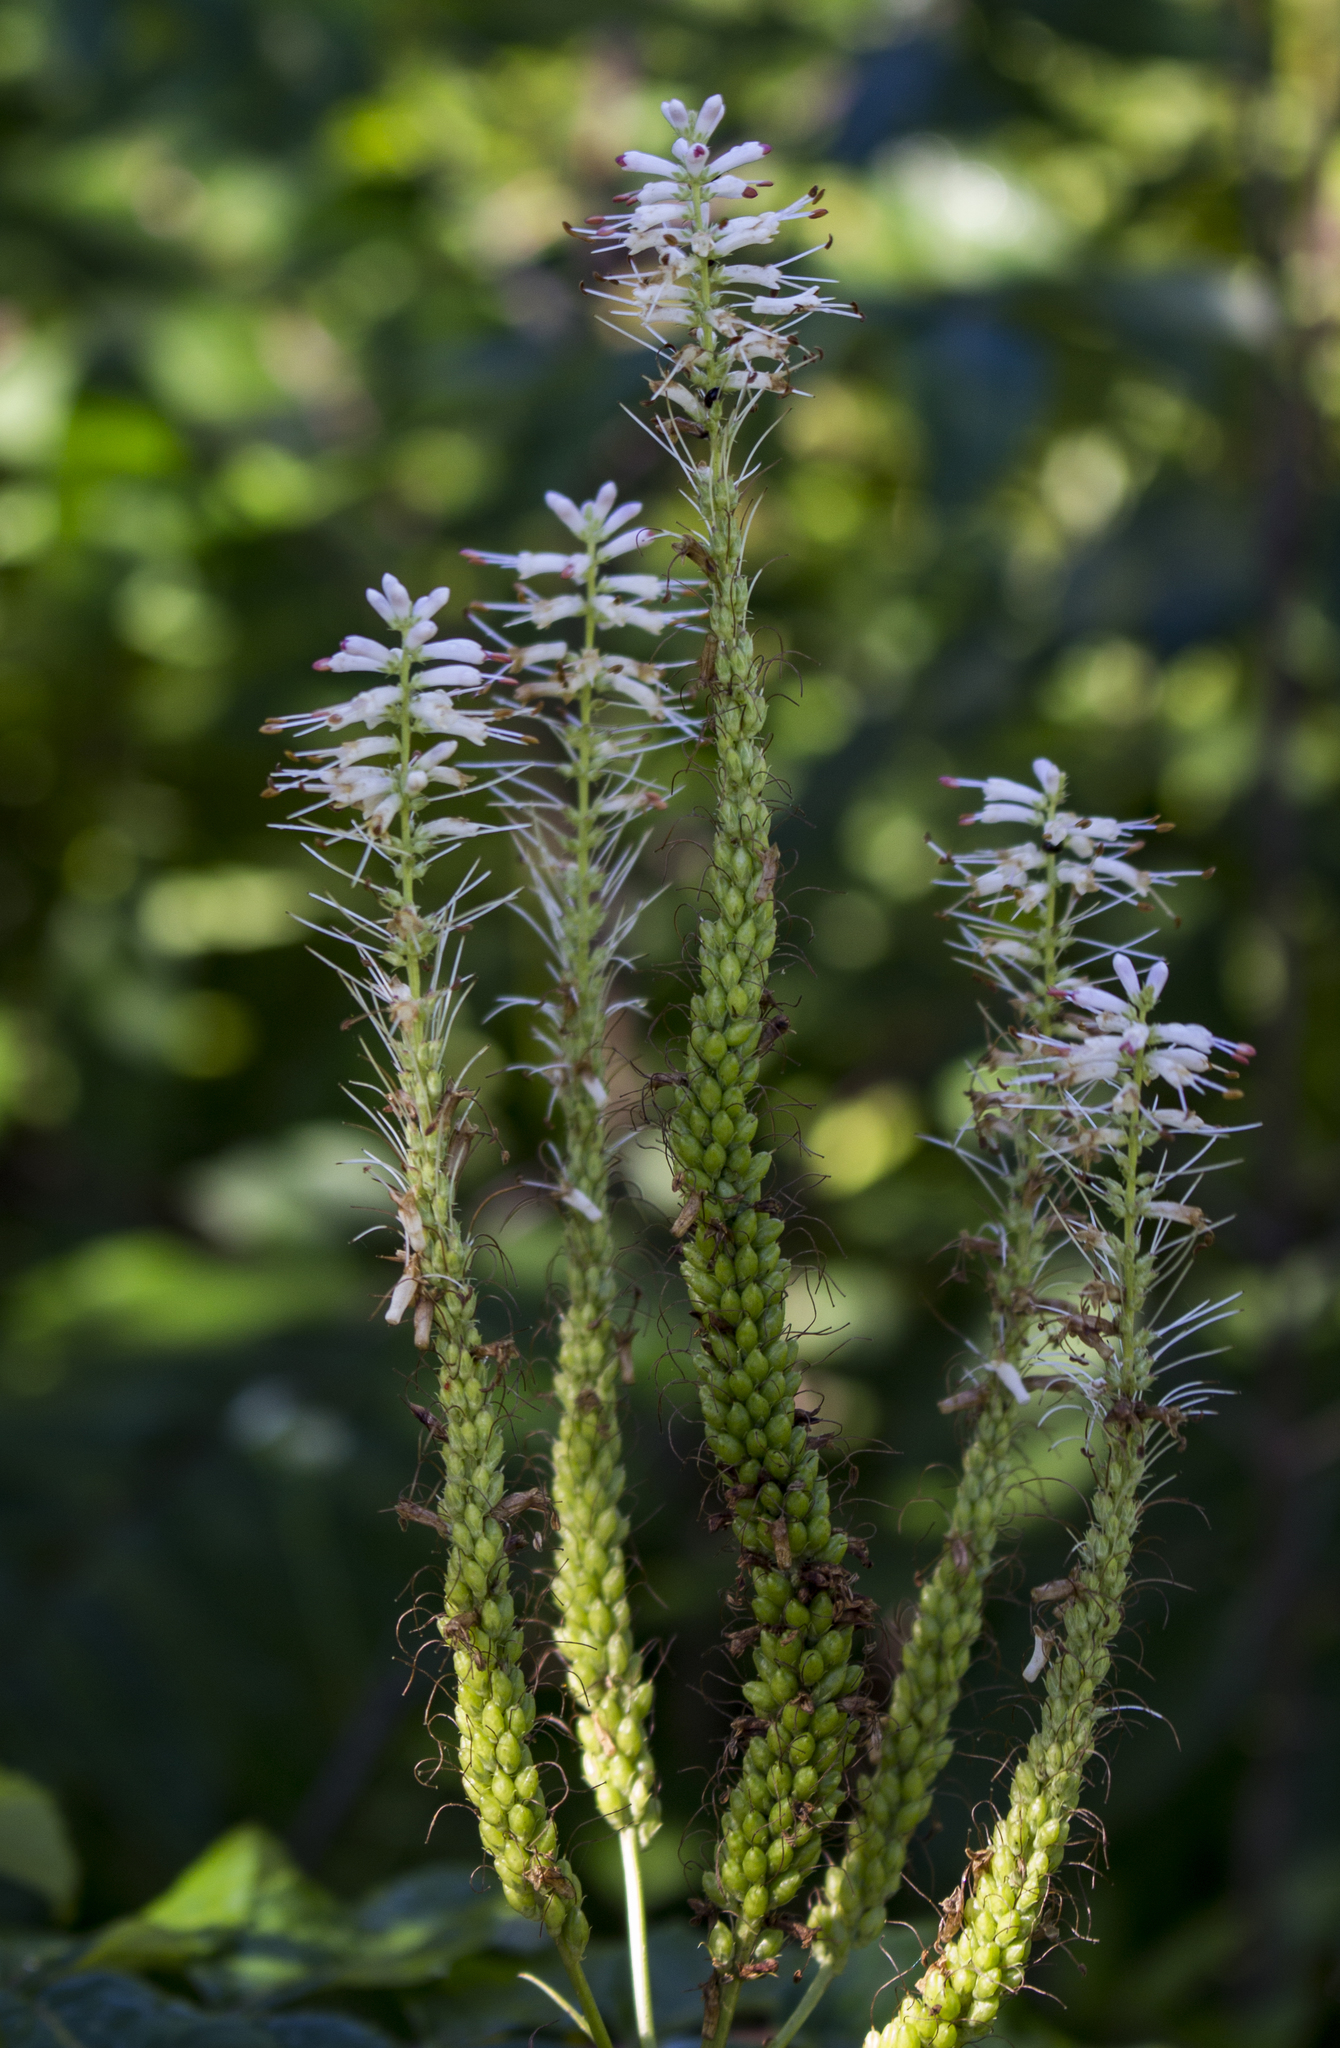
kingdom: Plantae
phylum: Tracheophyta
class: Magnoliopsida
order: Lamiales
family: Plantaginaceae
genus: Veronicastrum
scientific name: Veronicastrum virginicum
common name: Blackroot
